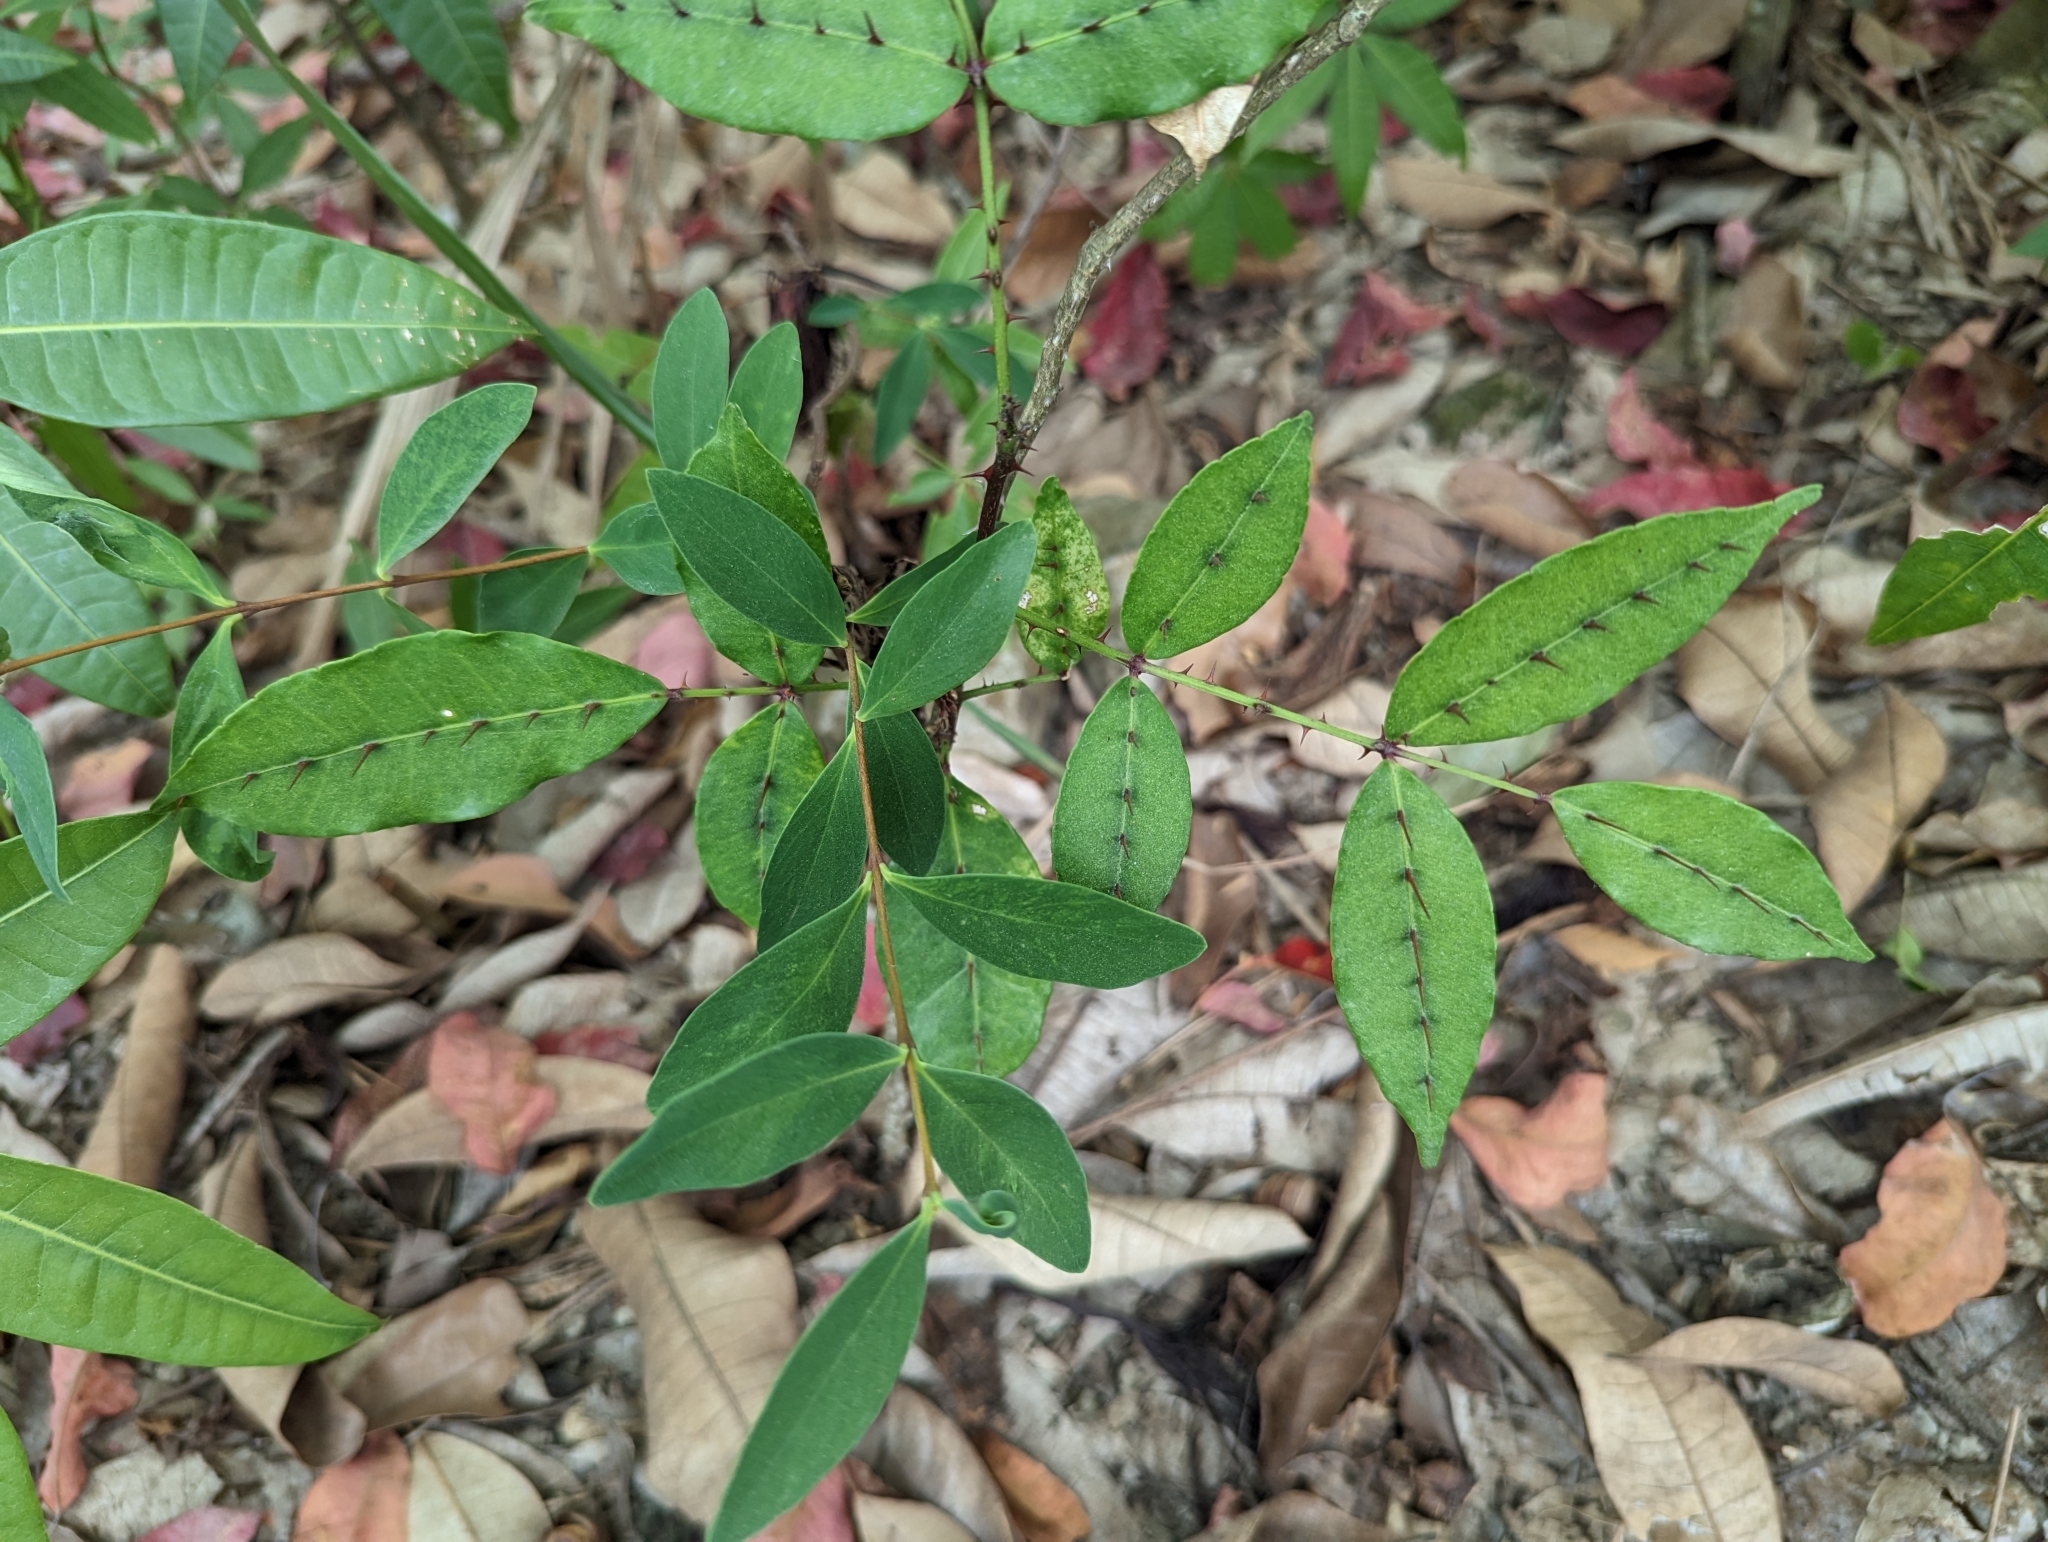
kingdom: Plantae
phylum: Tracheophyta
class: Magnoliopsida
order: Sapindales
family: Rutaceae
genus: Zanthoxylum
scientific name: Zanthoxylum nitidum
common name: Shiny-leaf prickly-ash
